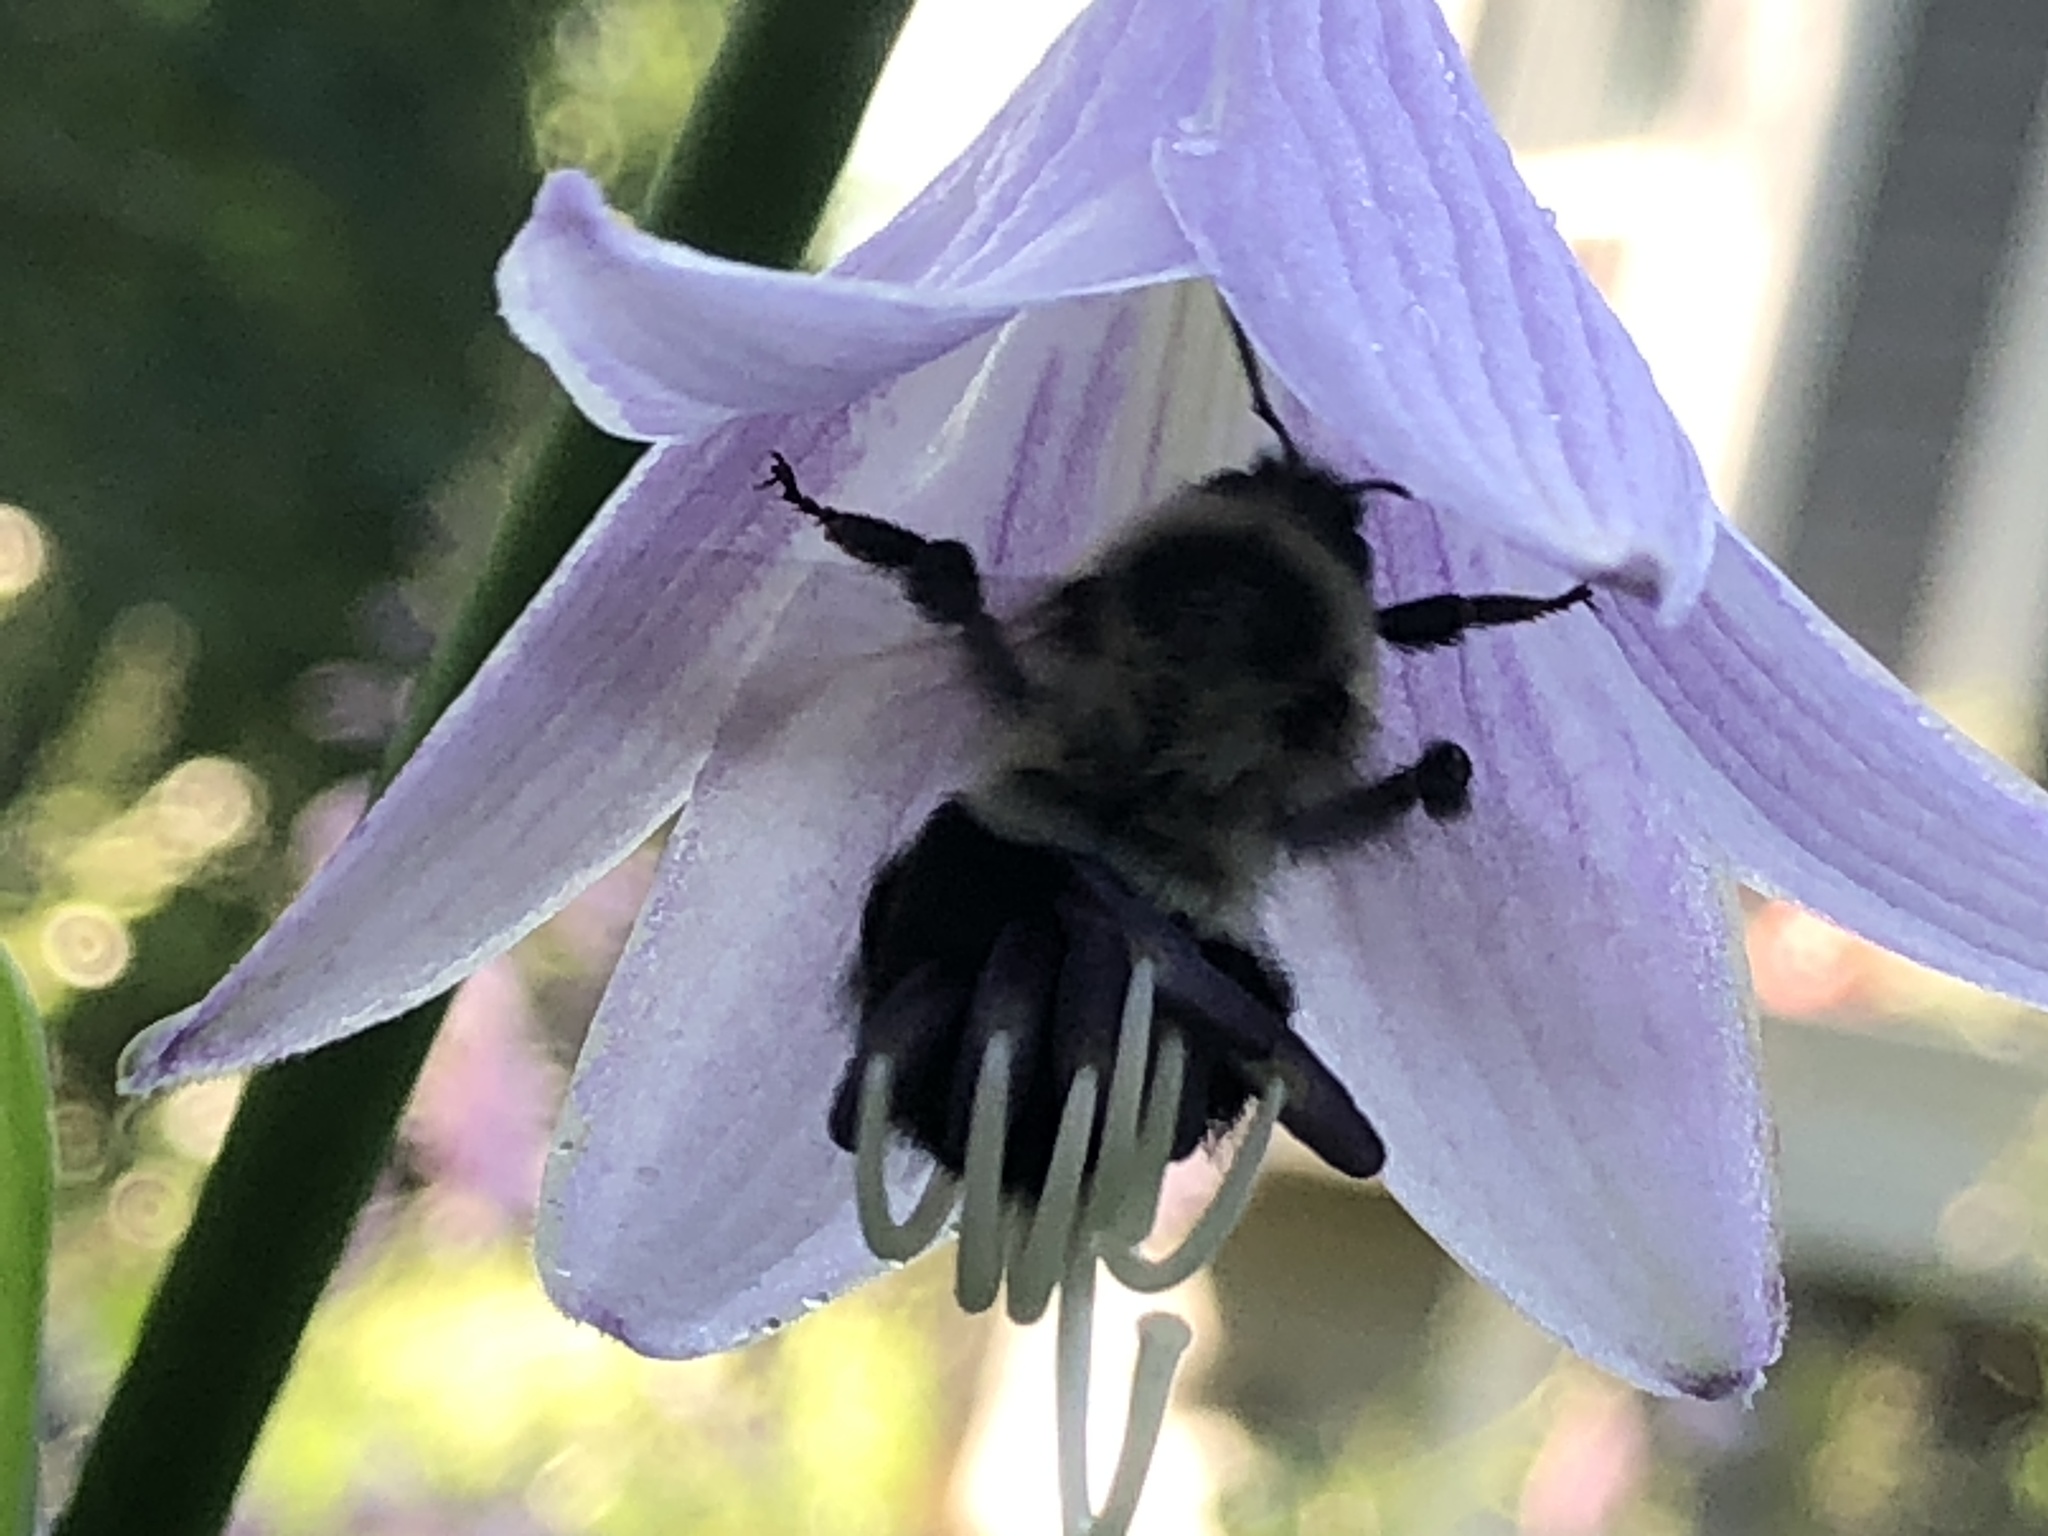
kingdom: Animalia
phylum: Arthropoda
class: Insecta
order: Hymenoptera
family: Apidae
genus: Bombus
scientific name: Bombus impatiens
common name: Common eastern bumble bee
